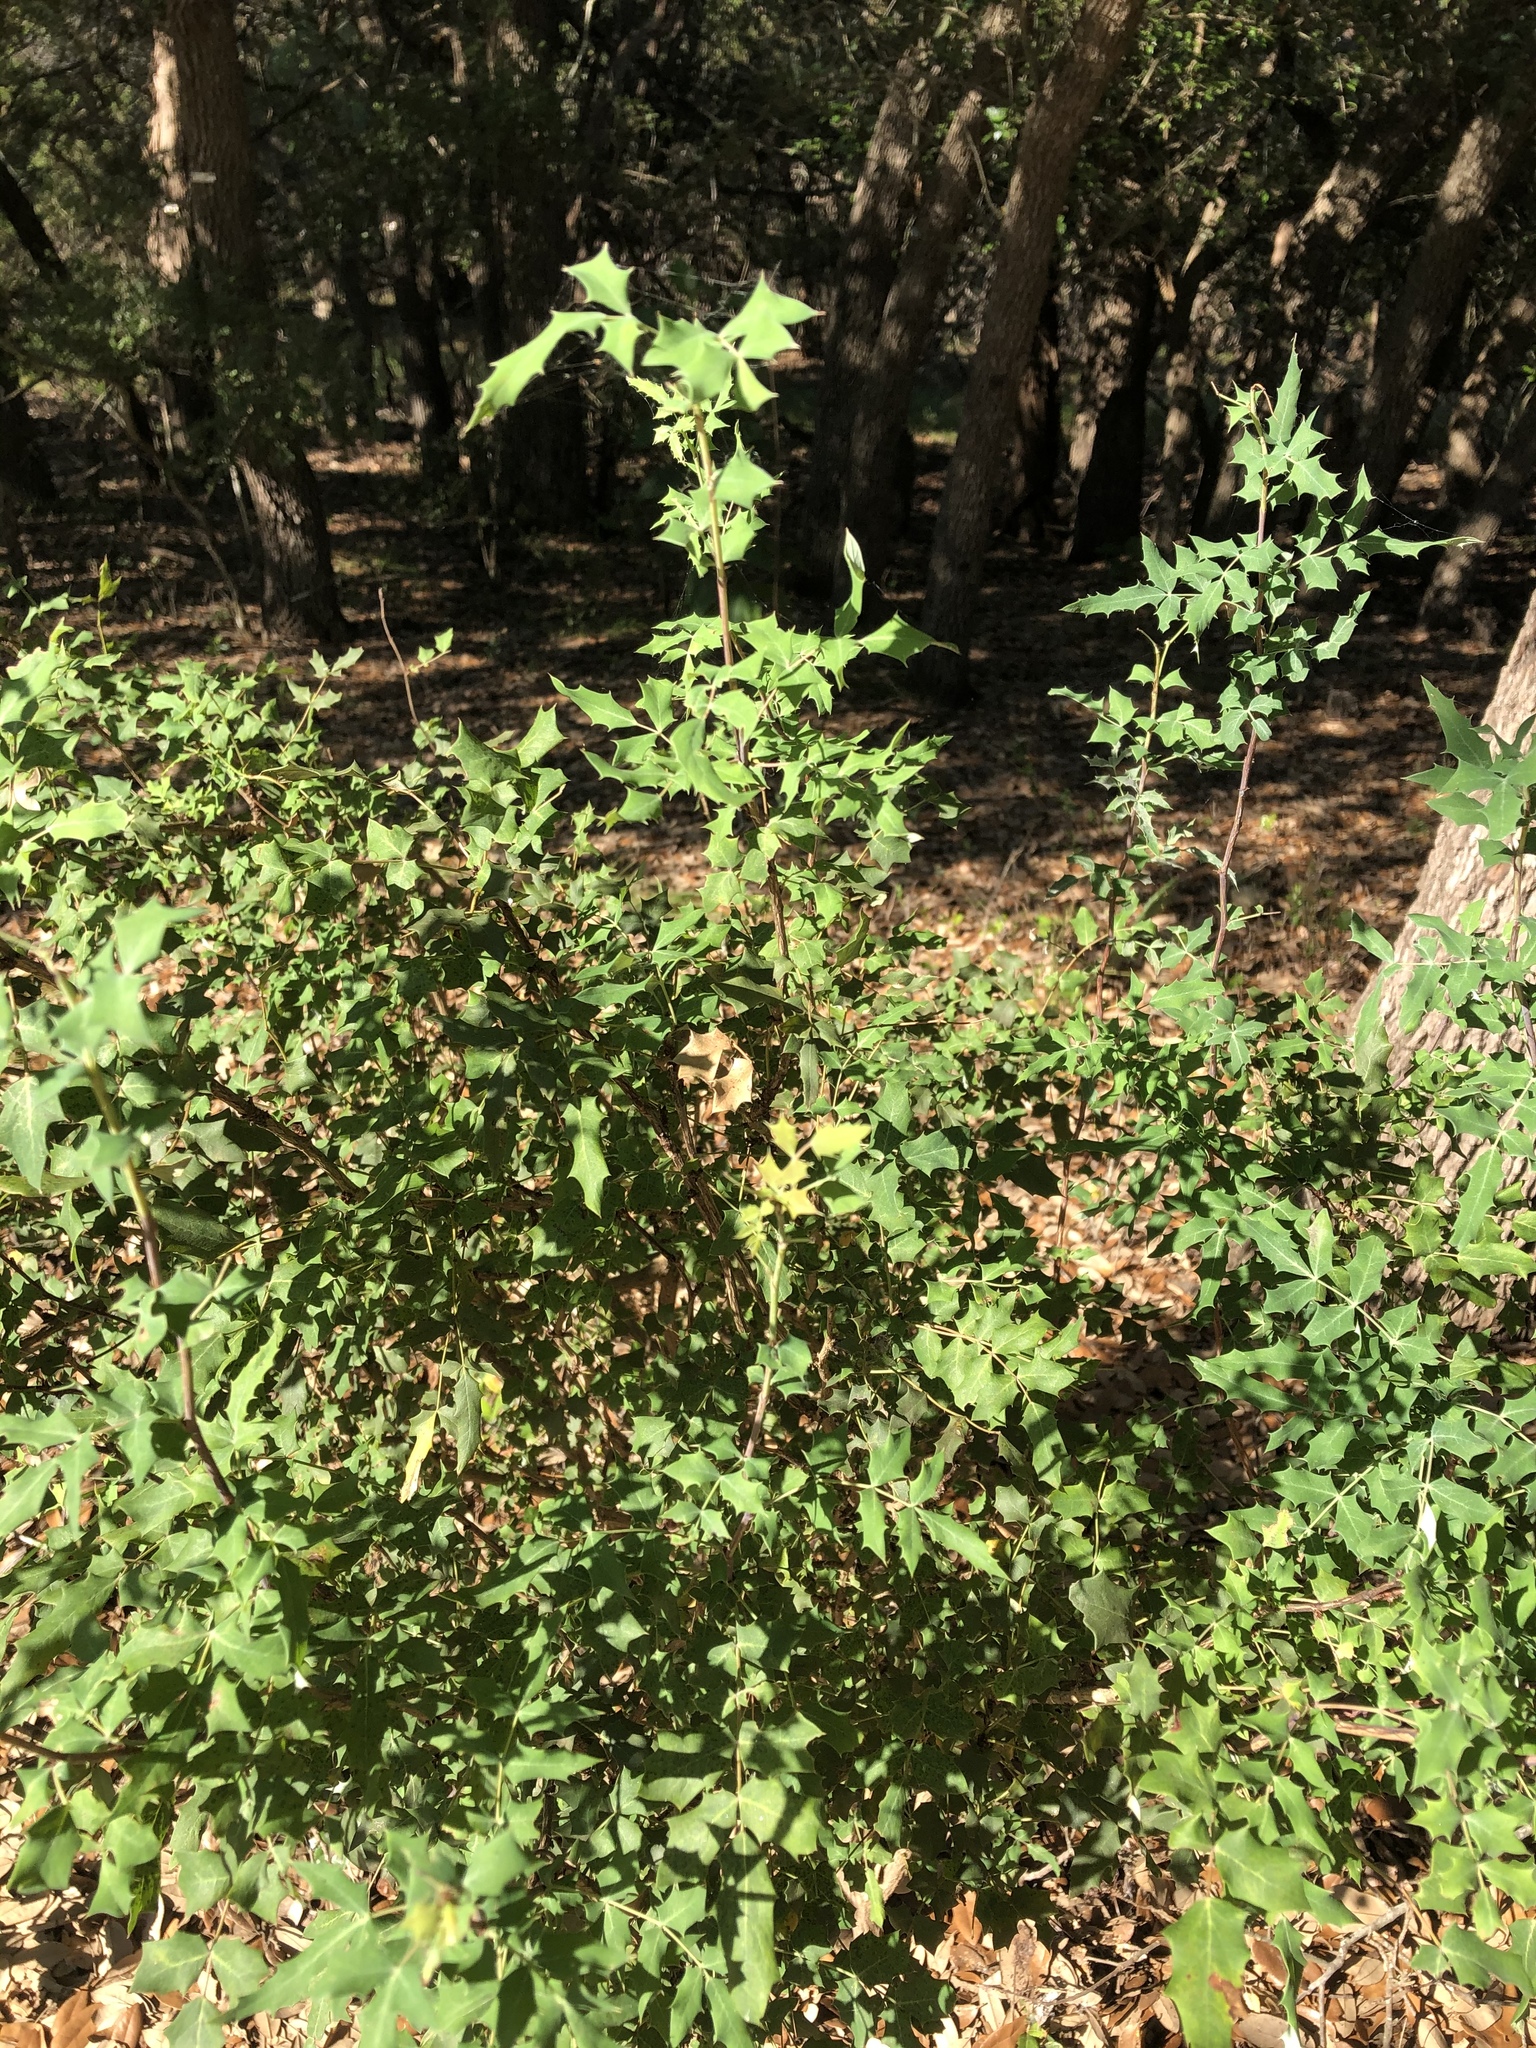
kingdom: Plantae
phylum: Tracheophyta
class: Magnoliopsida
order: Ranunculales
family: Berberidaceae
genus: Berberis
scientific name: Berberis swaseyi
